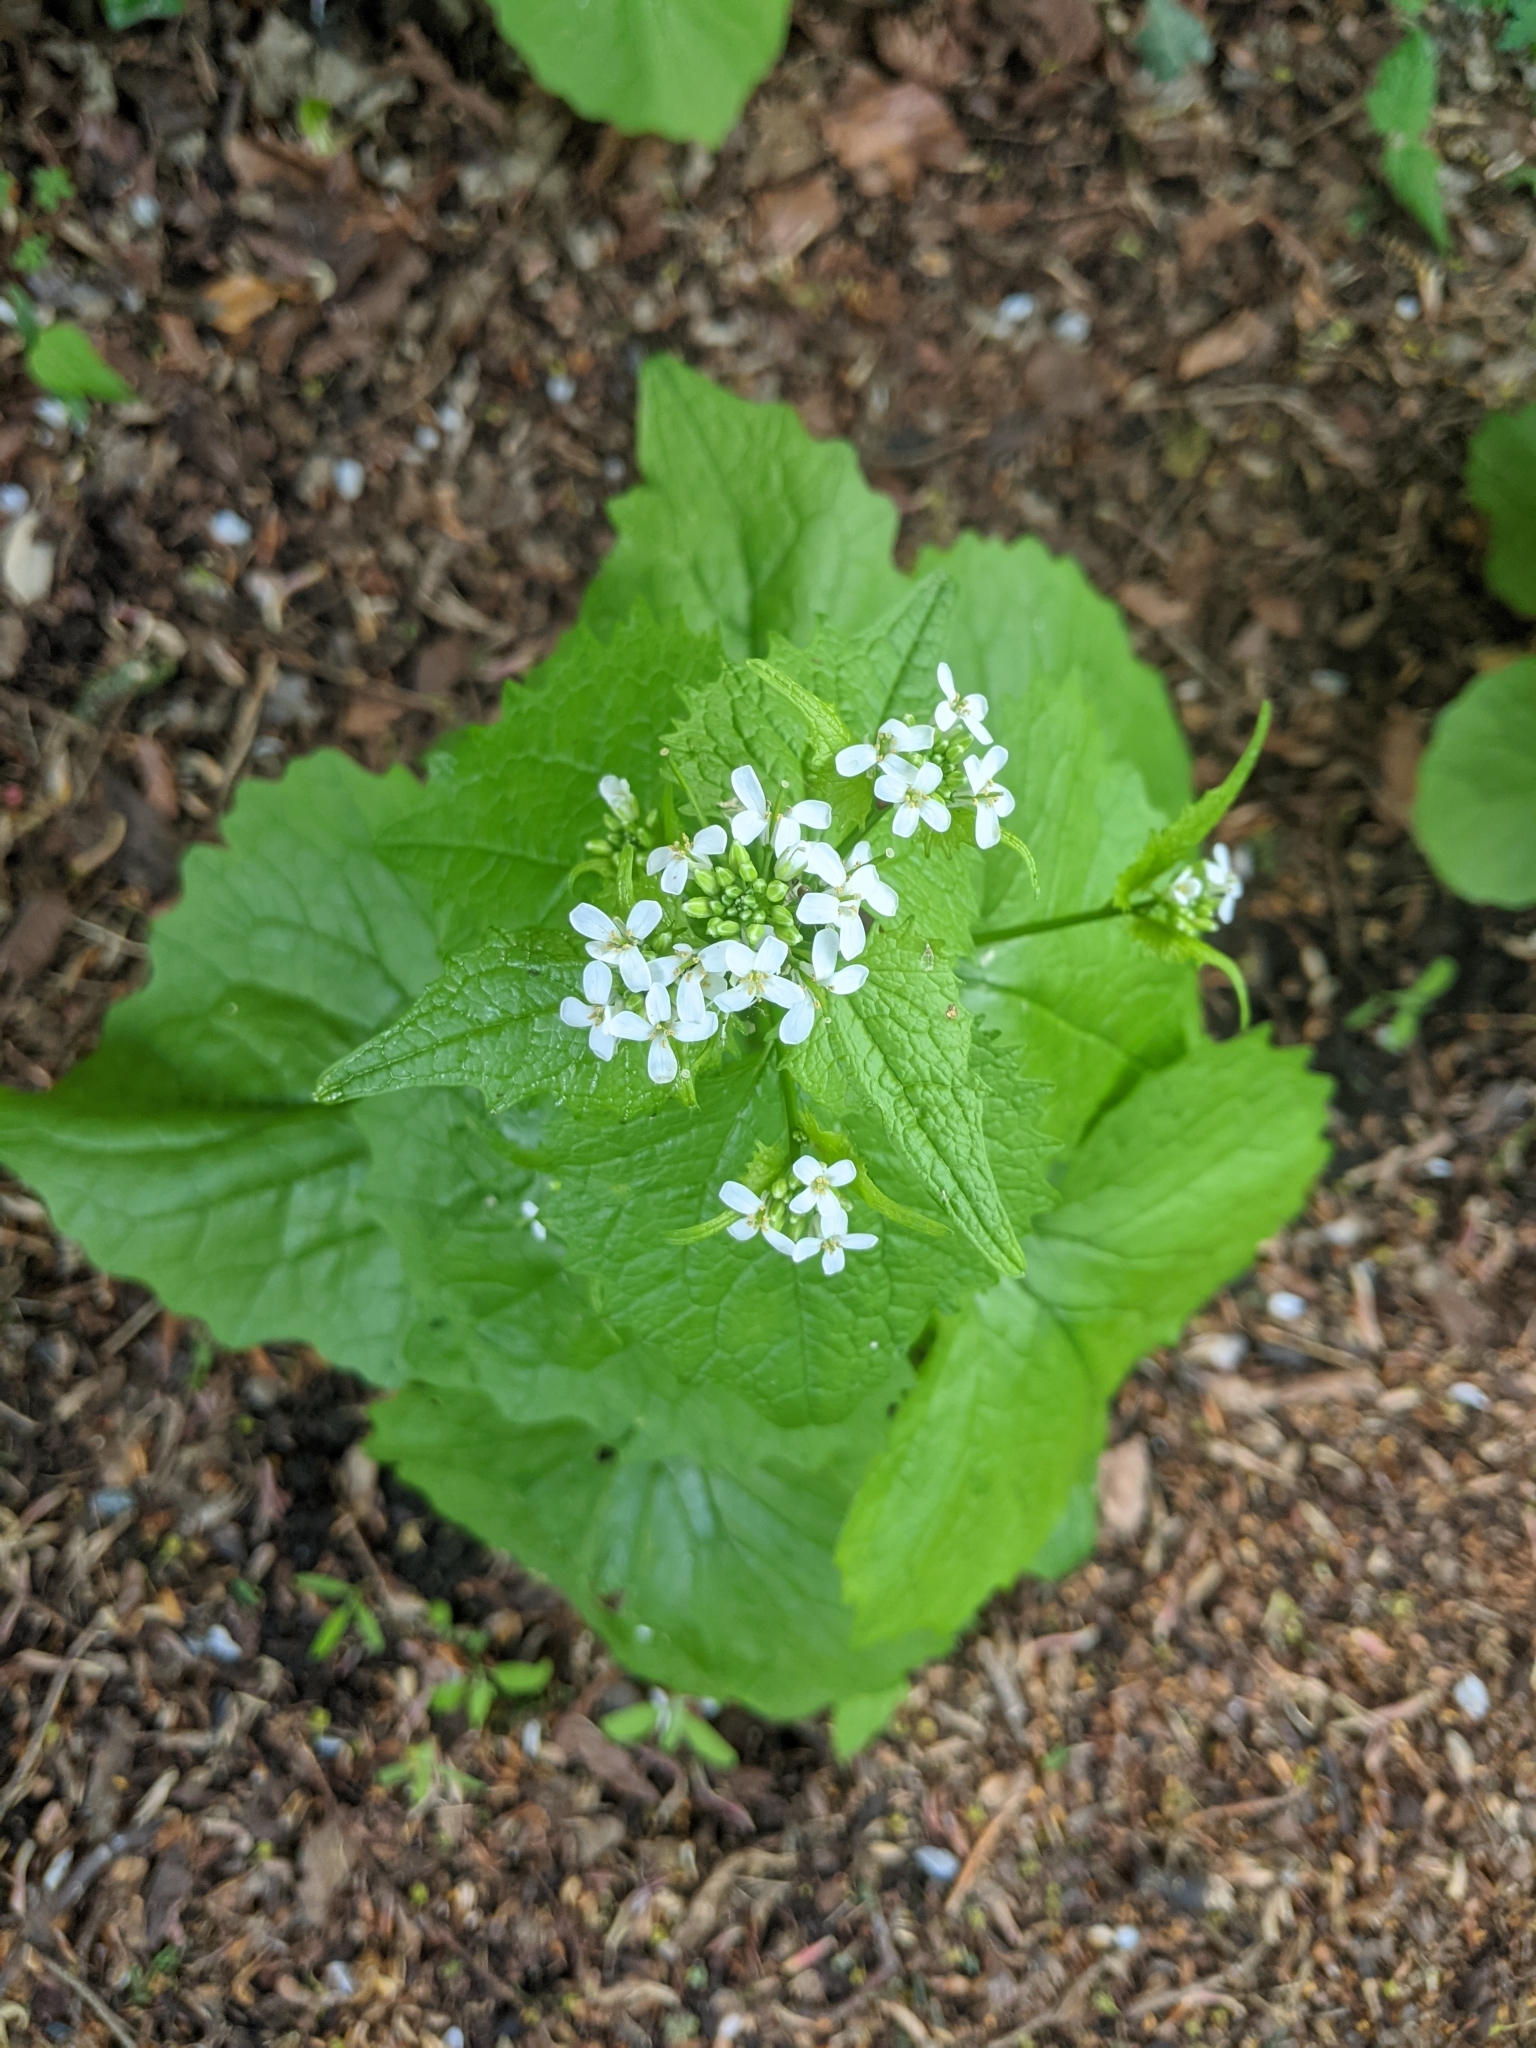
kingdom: Plantae
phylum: Tracheophyta
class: Magnoliopsida
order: Brassicales
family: Brassicaceae
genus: Alliaria
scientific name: Alliaria petiolata
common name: Garlic mustard
